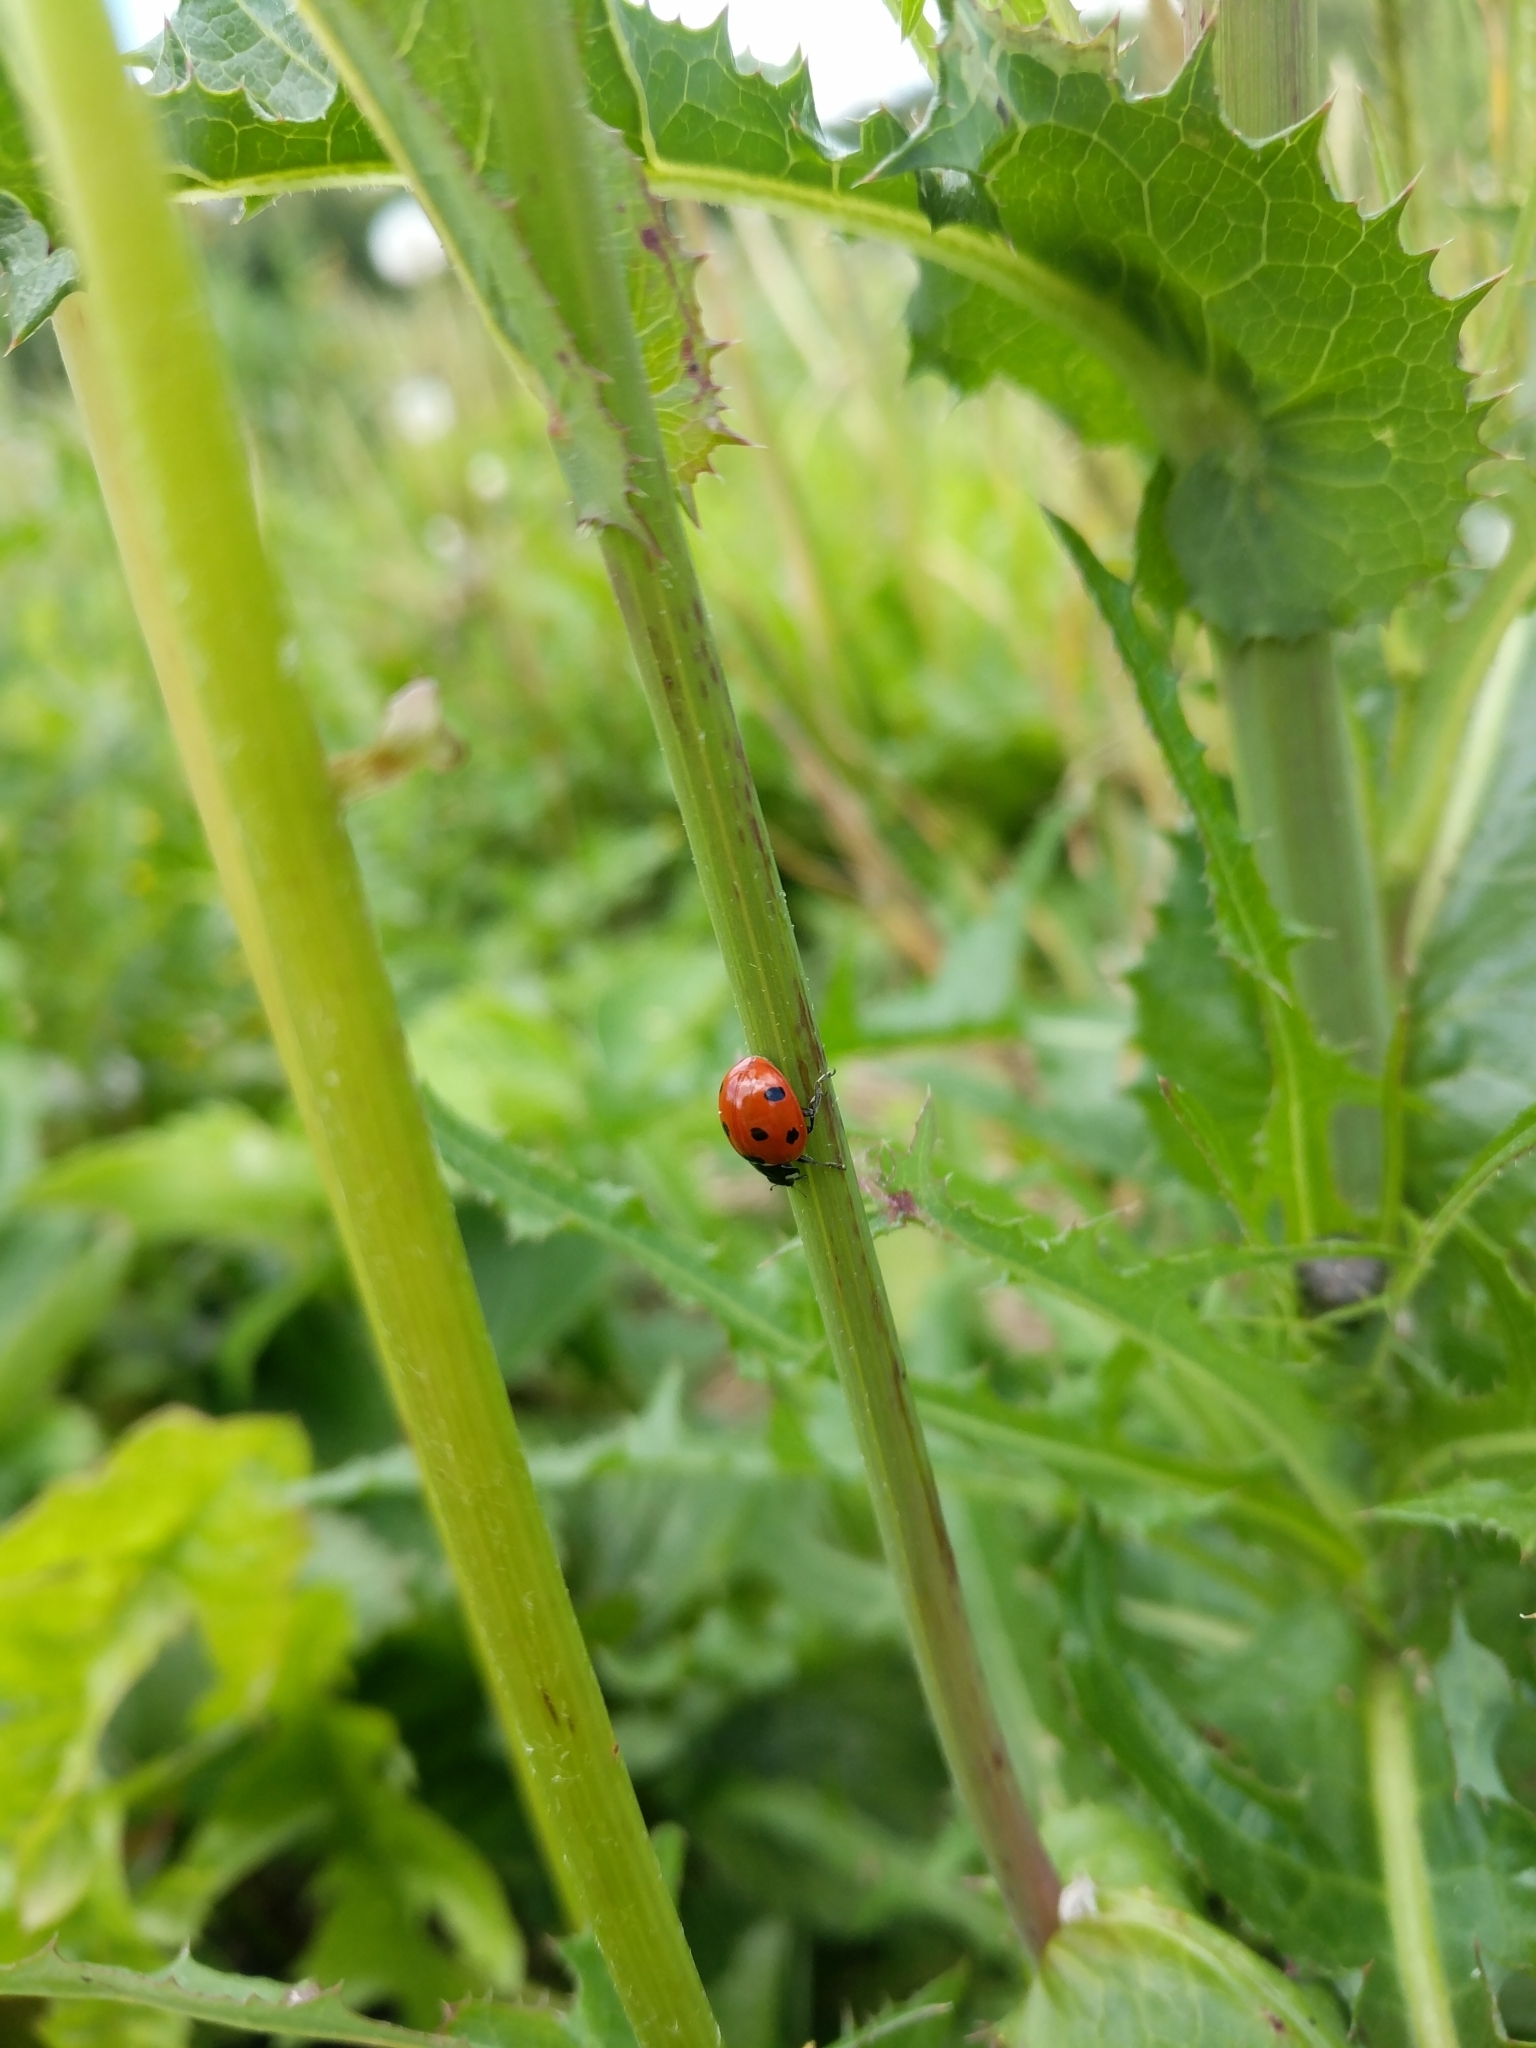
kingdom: Animalia
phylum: Arthropoda
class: Insecta
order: Coleoptera
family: Coccinellidae
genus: Coccinella
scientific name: Coccinella septempunctata
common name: Sevenspotted lady beetle
